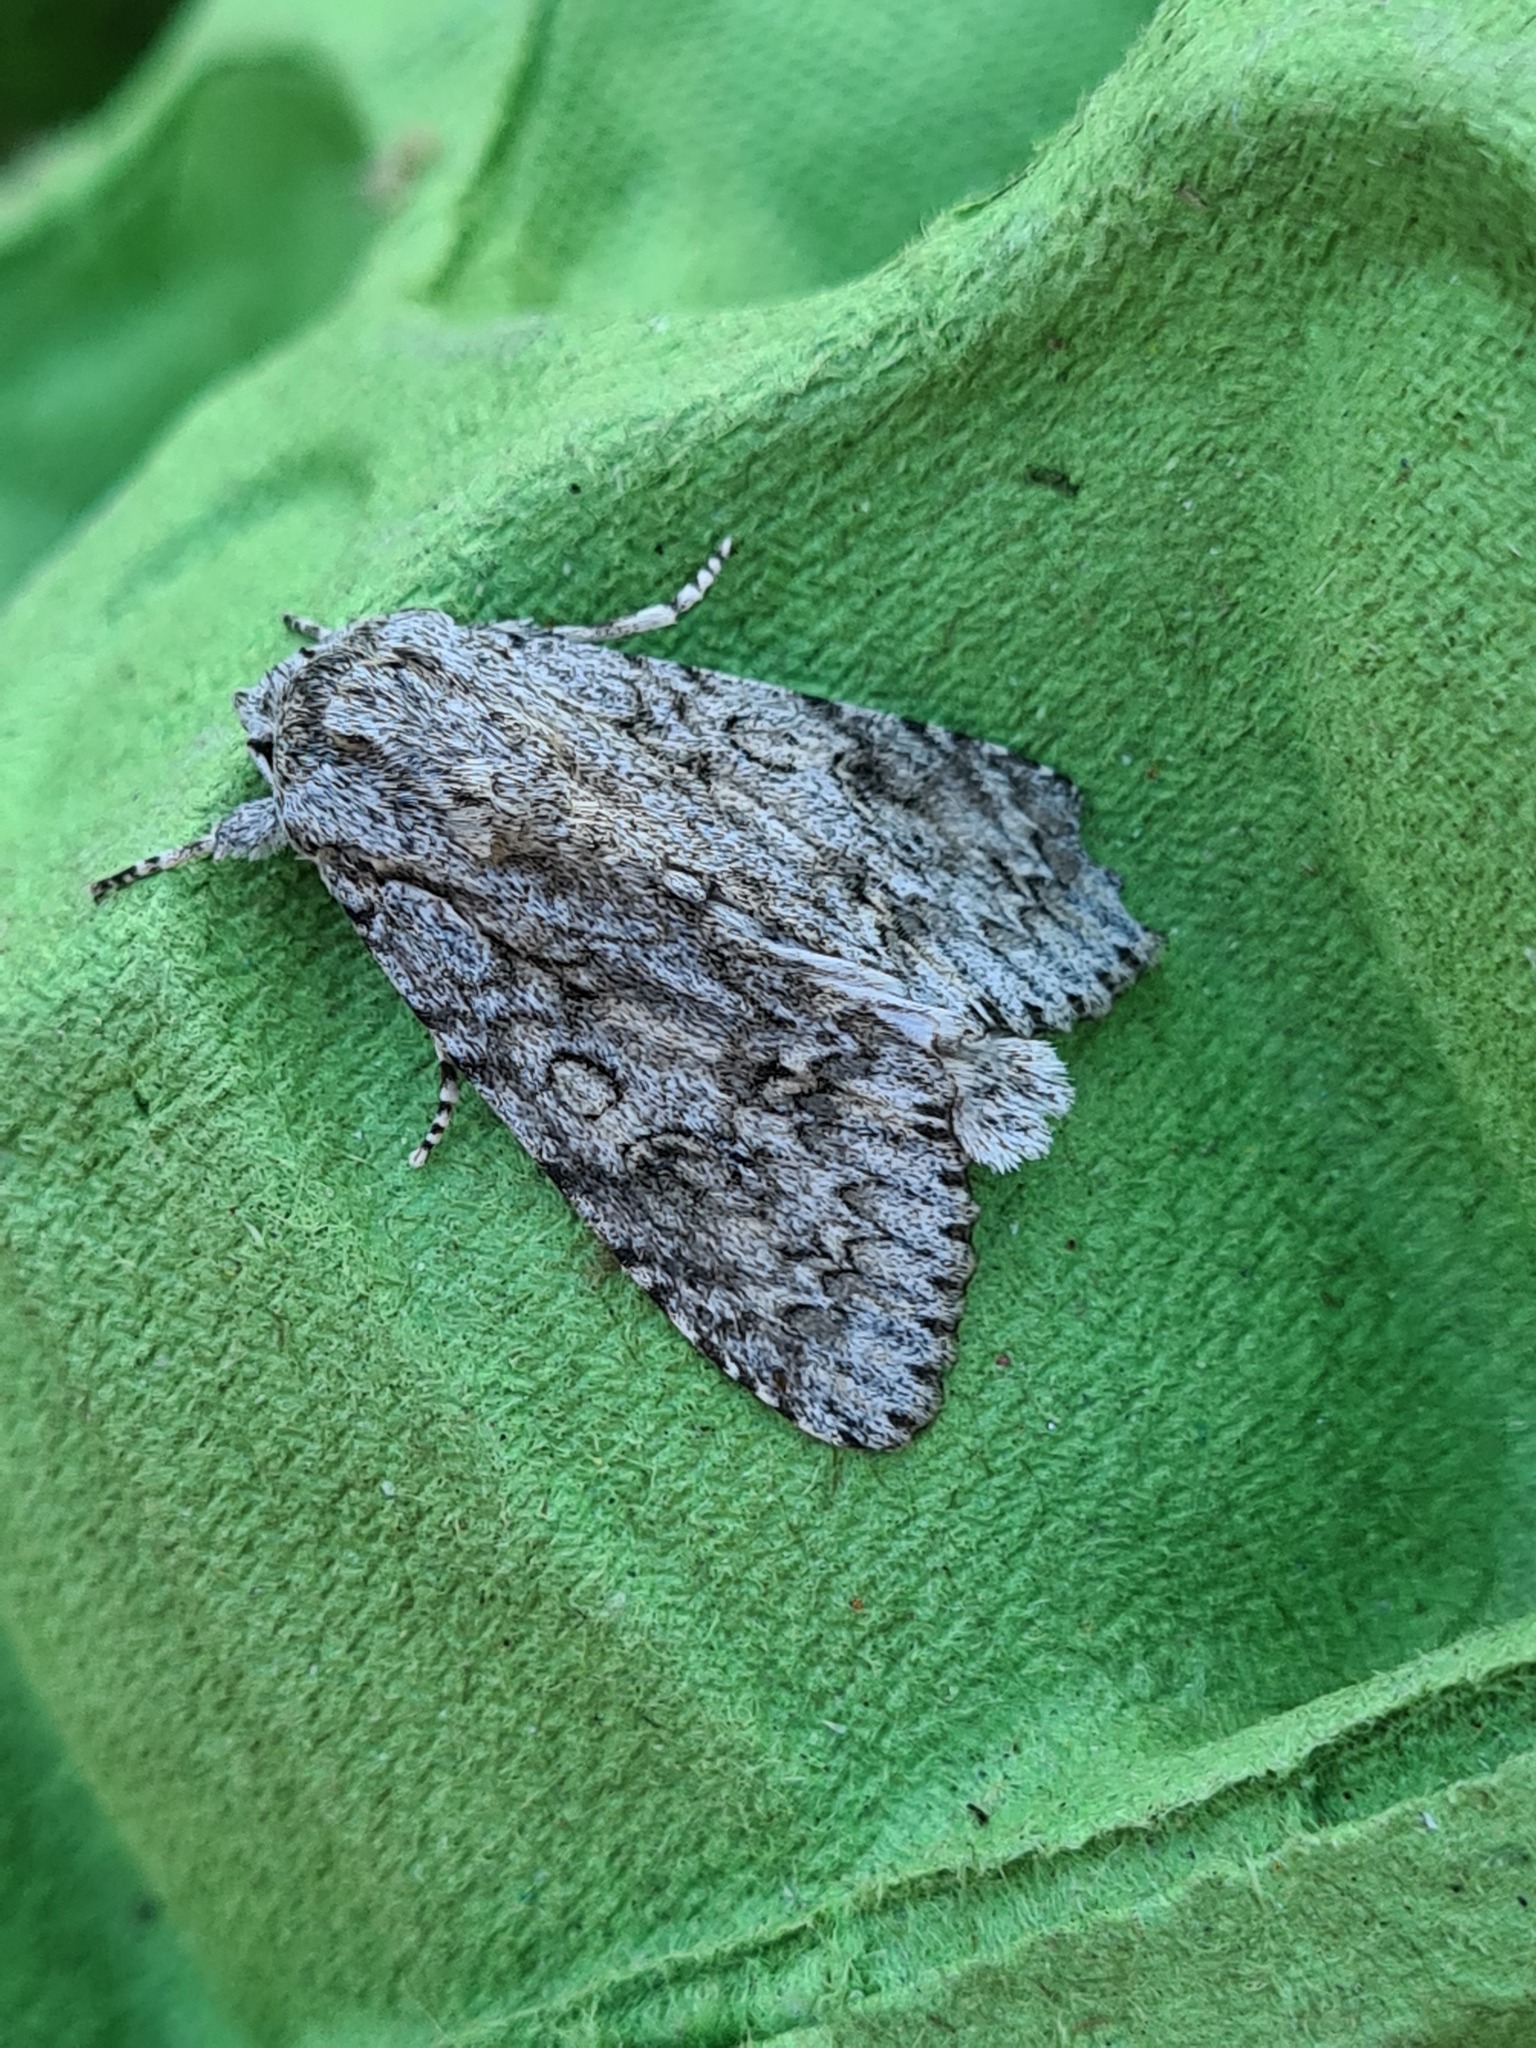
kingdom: Animalia
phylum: Arthropoda
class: Insecta
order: Lepidoptera
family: Noctuidae
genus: Acronicta
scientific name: Acronicta aceris
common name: Sycamore
